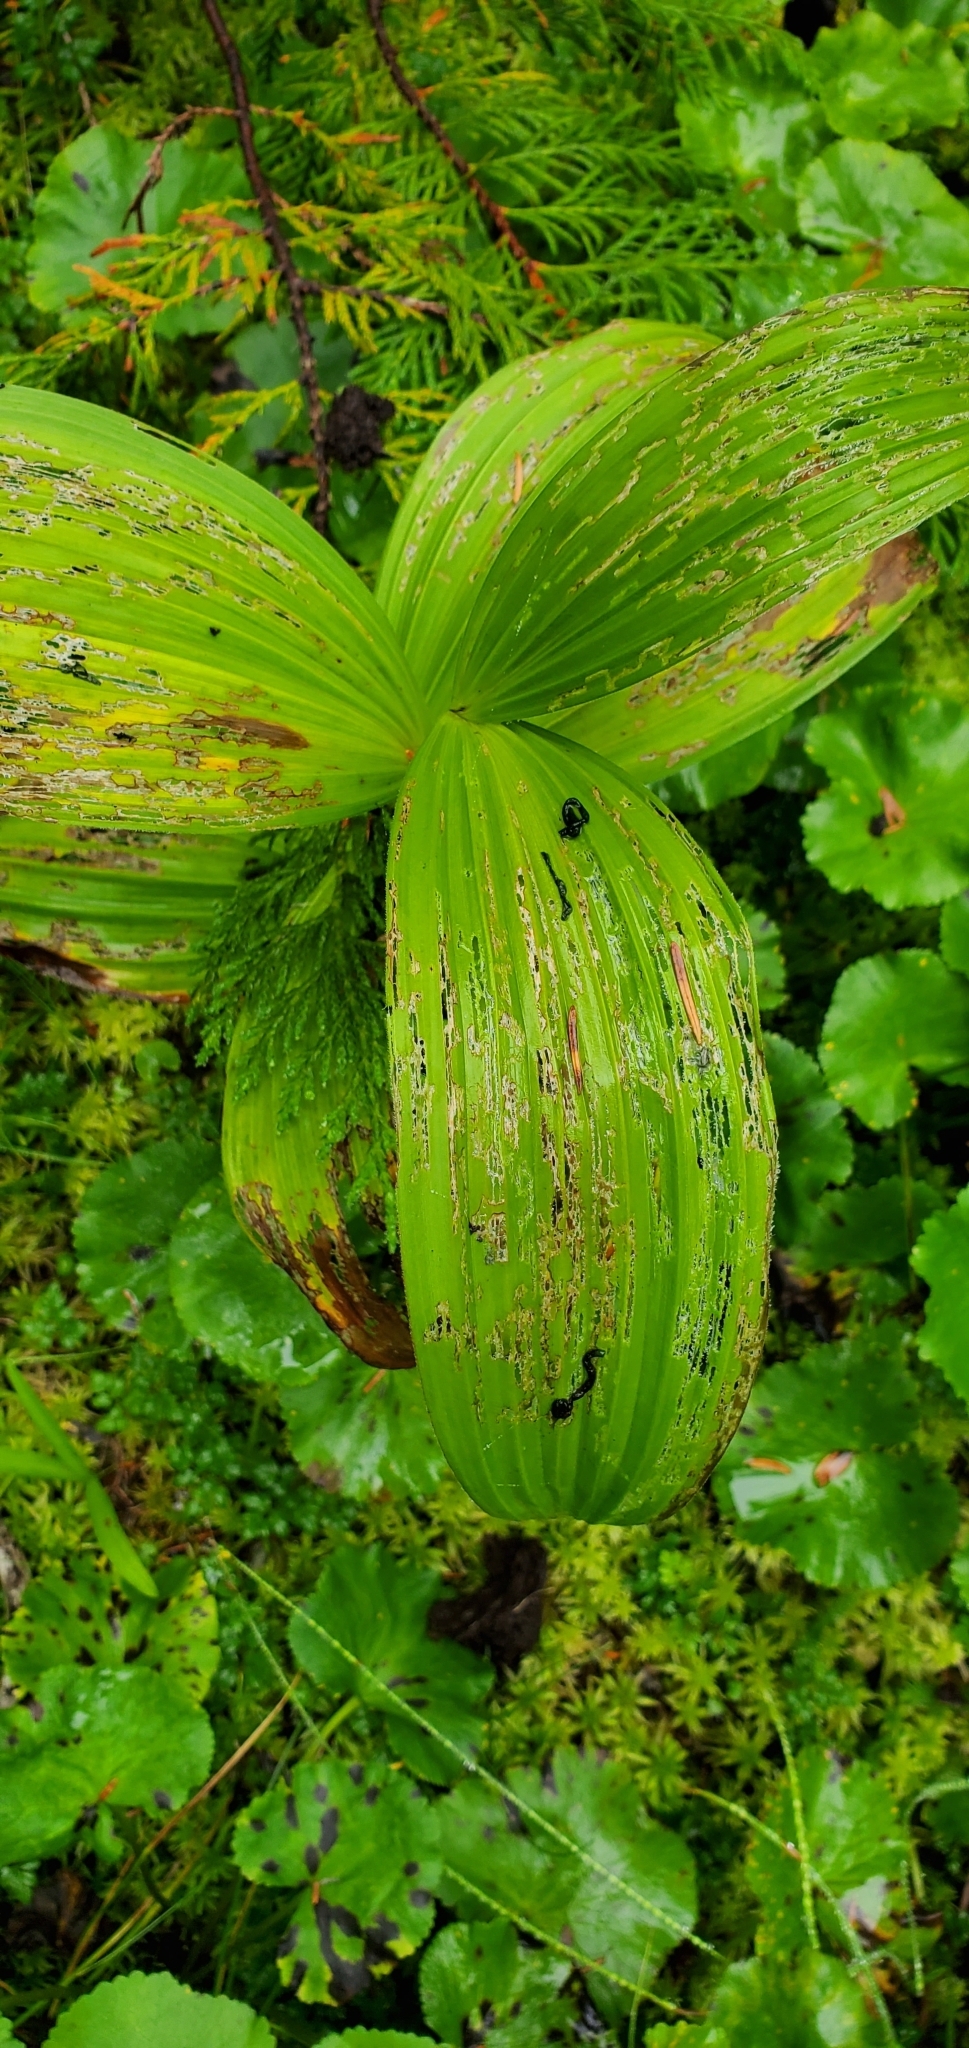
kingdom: Plantae
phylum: Tracheophyta
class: Liliopsida
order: Liliales
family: Melanthiaceae
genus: Veratrum
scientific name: Veratrum viride
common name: American false hellebore
